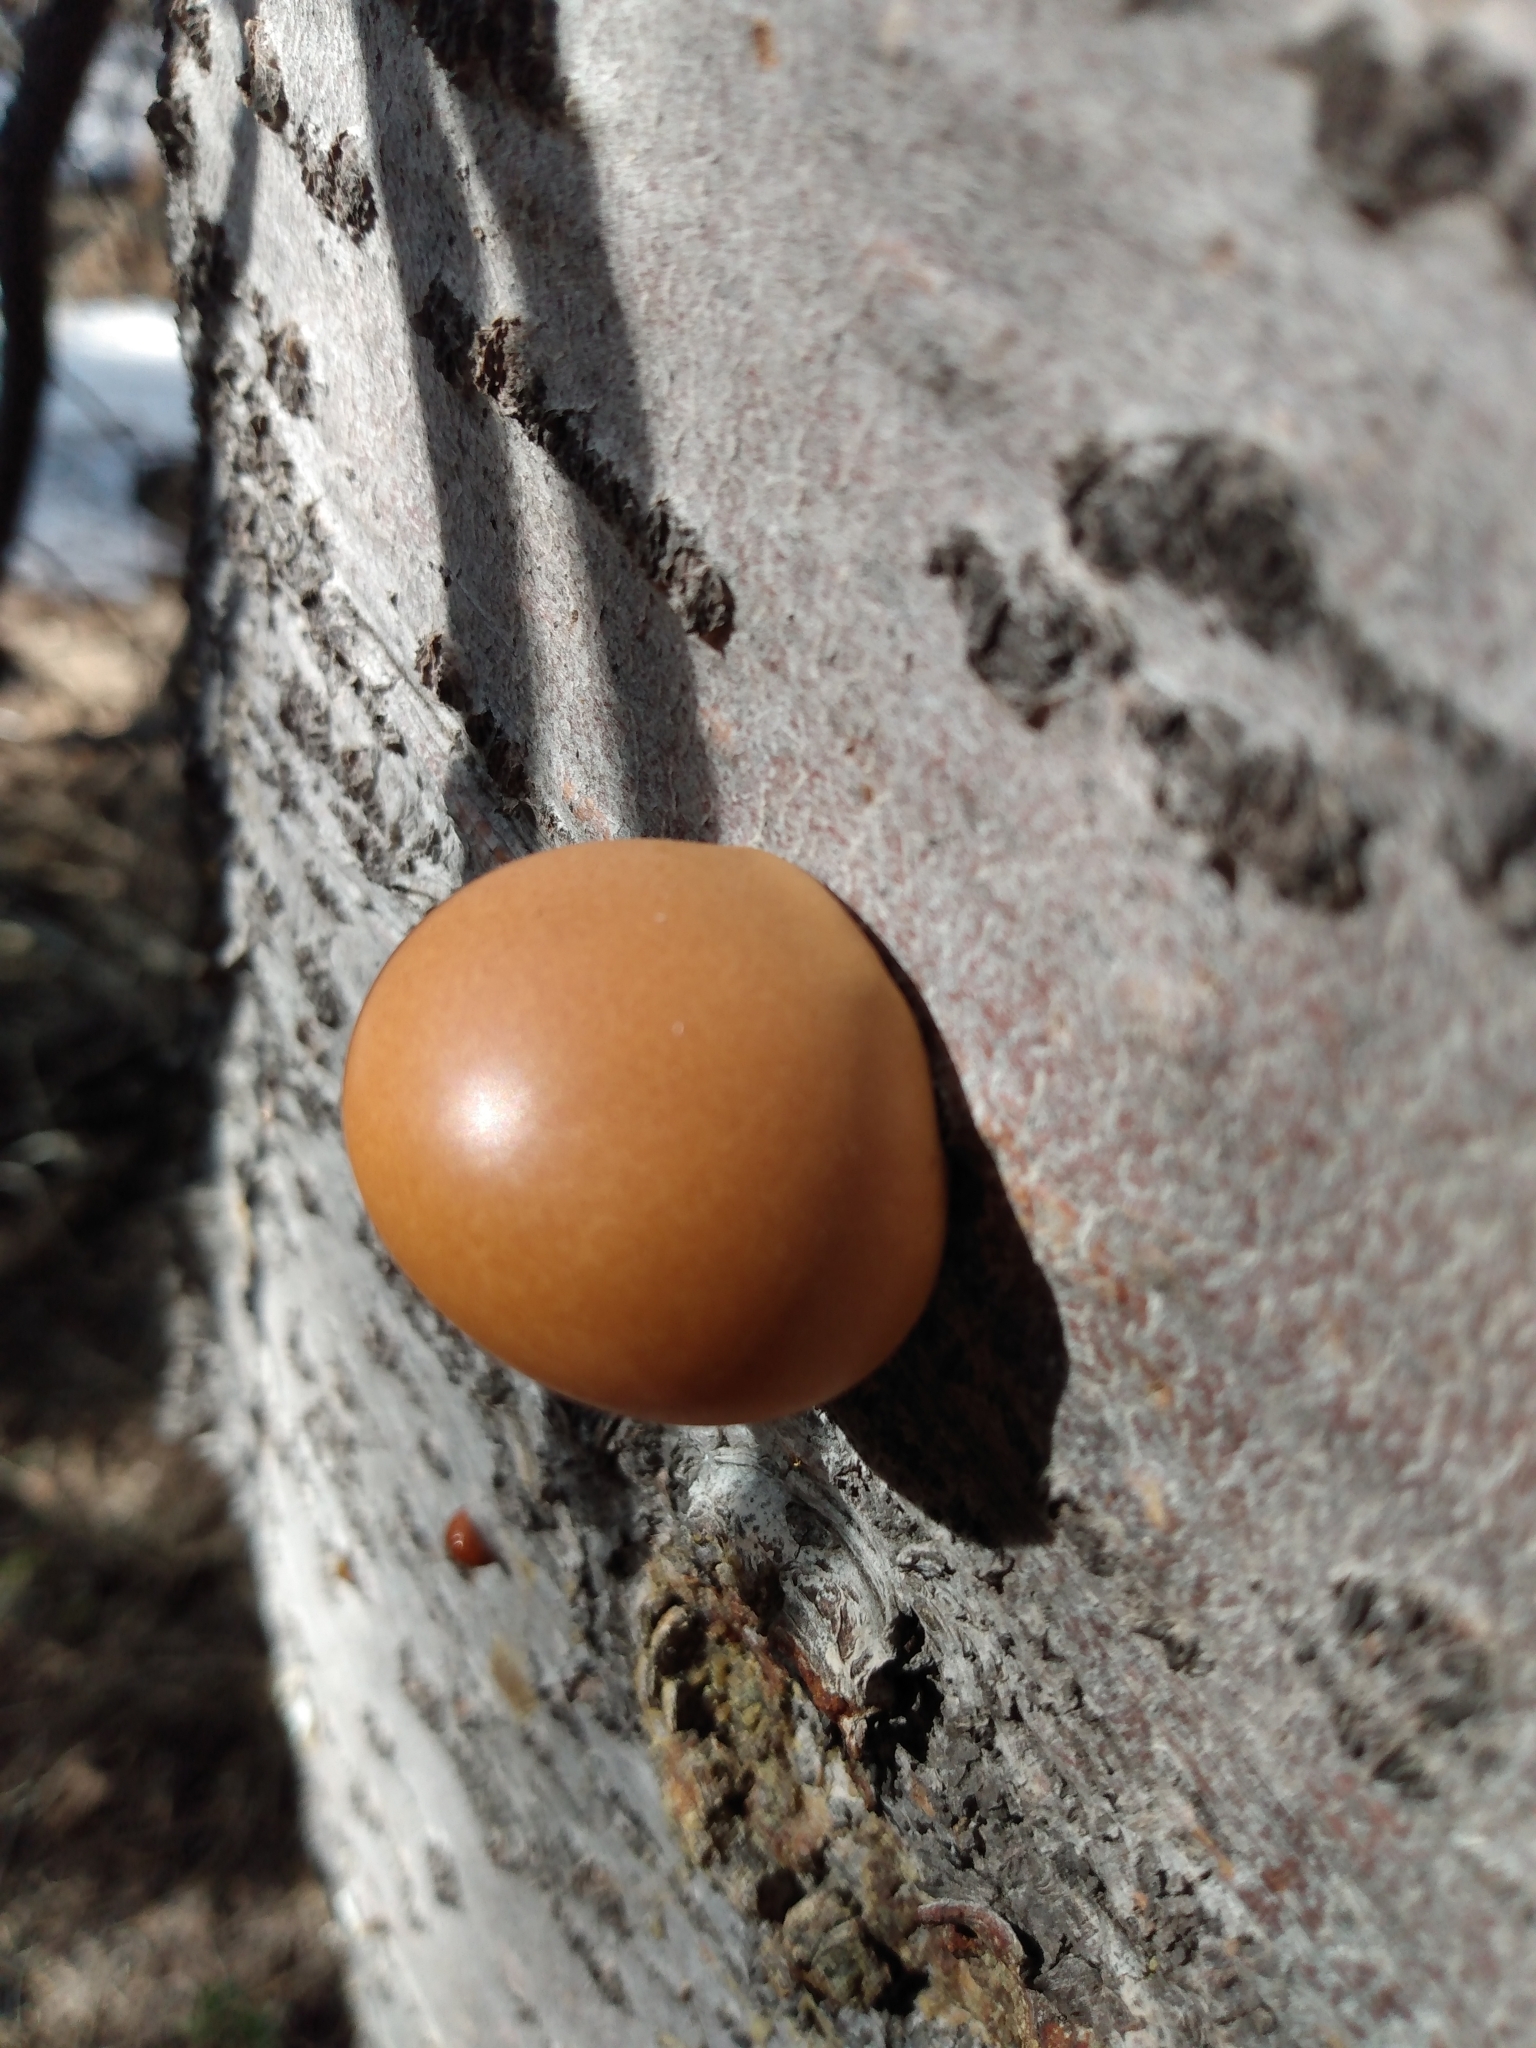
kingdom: Fungi
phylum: Basidiomycota
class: Agaricomycetes
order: Polyporales
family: Polyporaceae
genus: Cryptoporus
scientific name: Cryptoporus volvatus
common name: Veiled polypore
